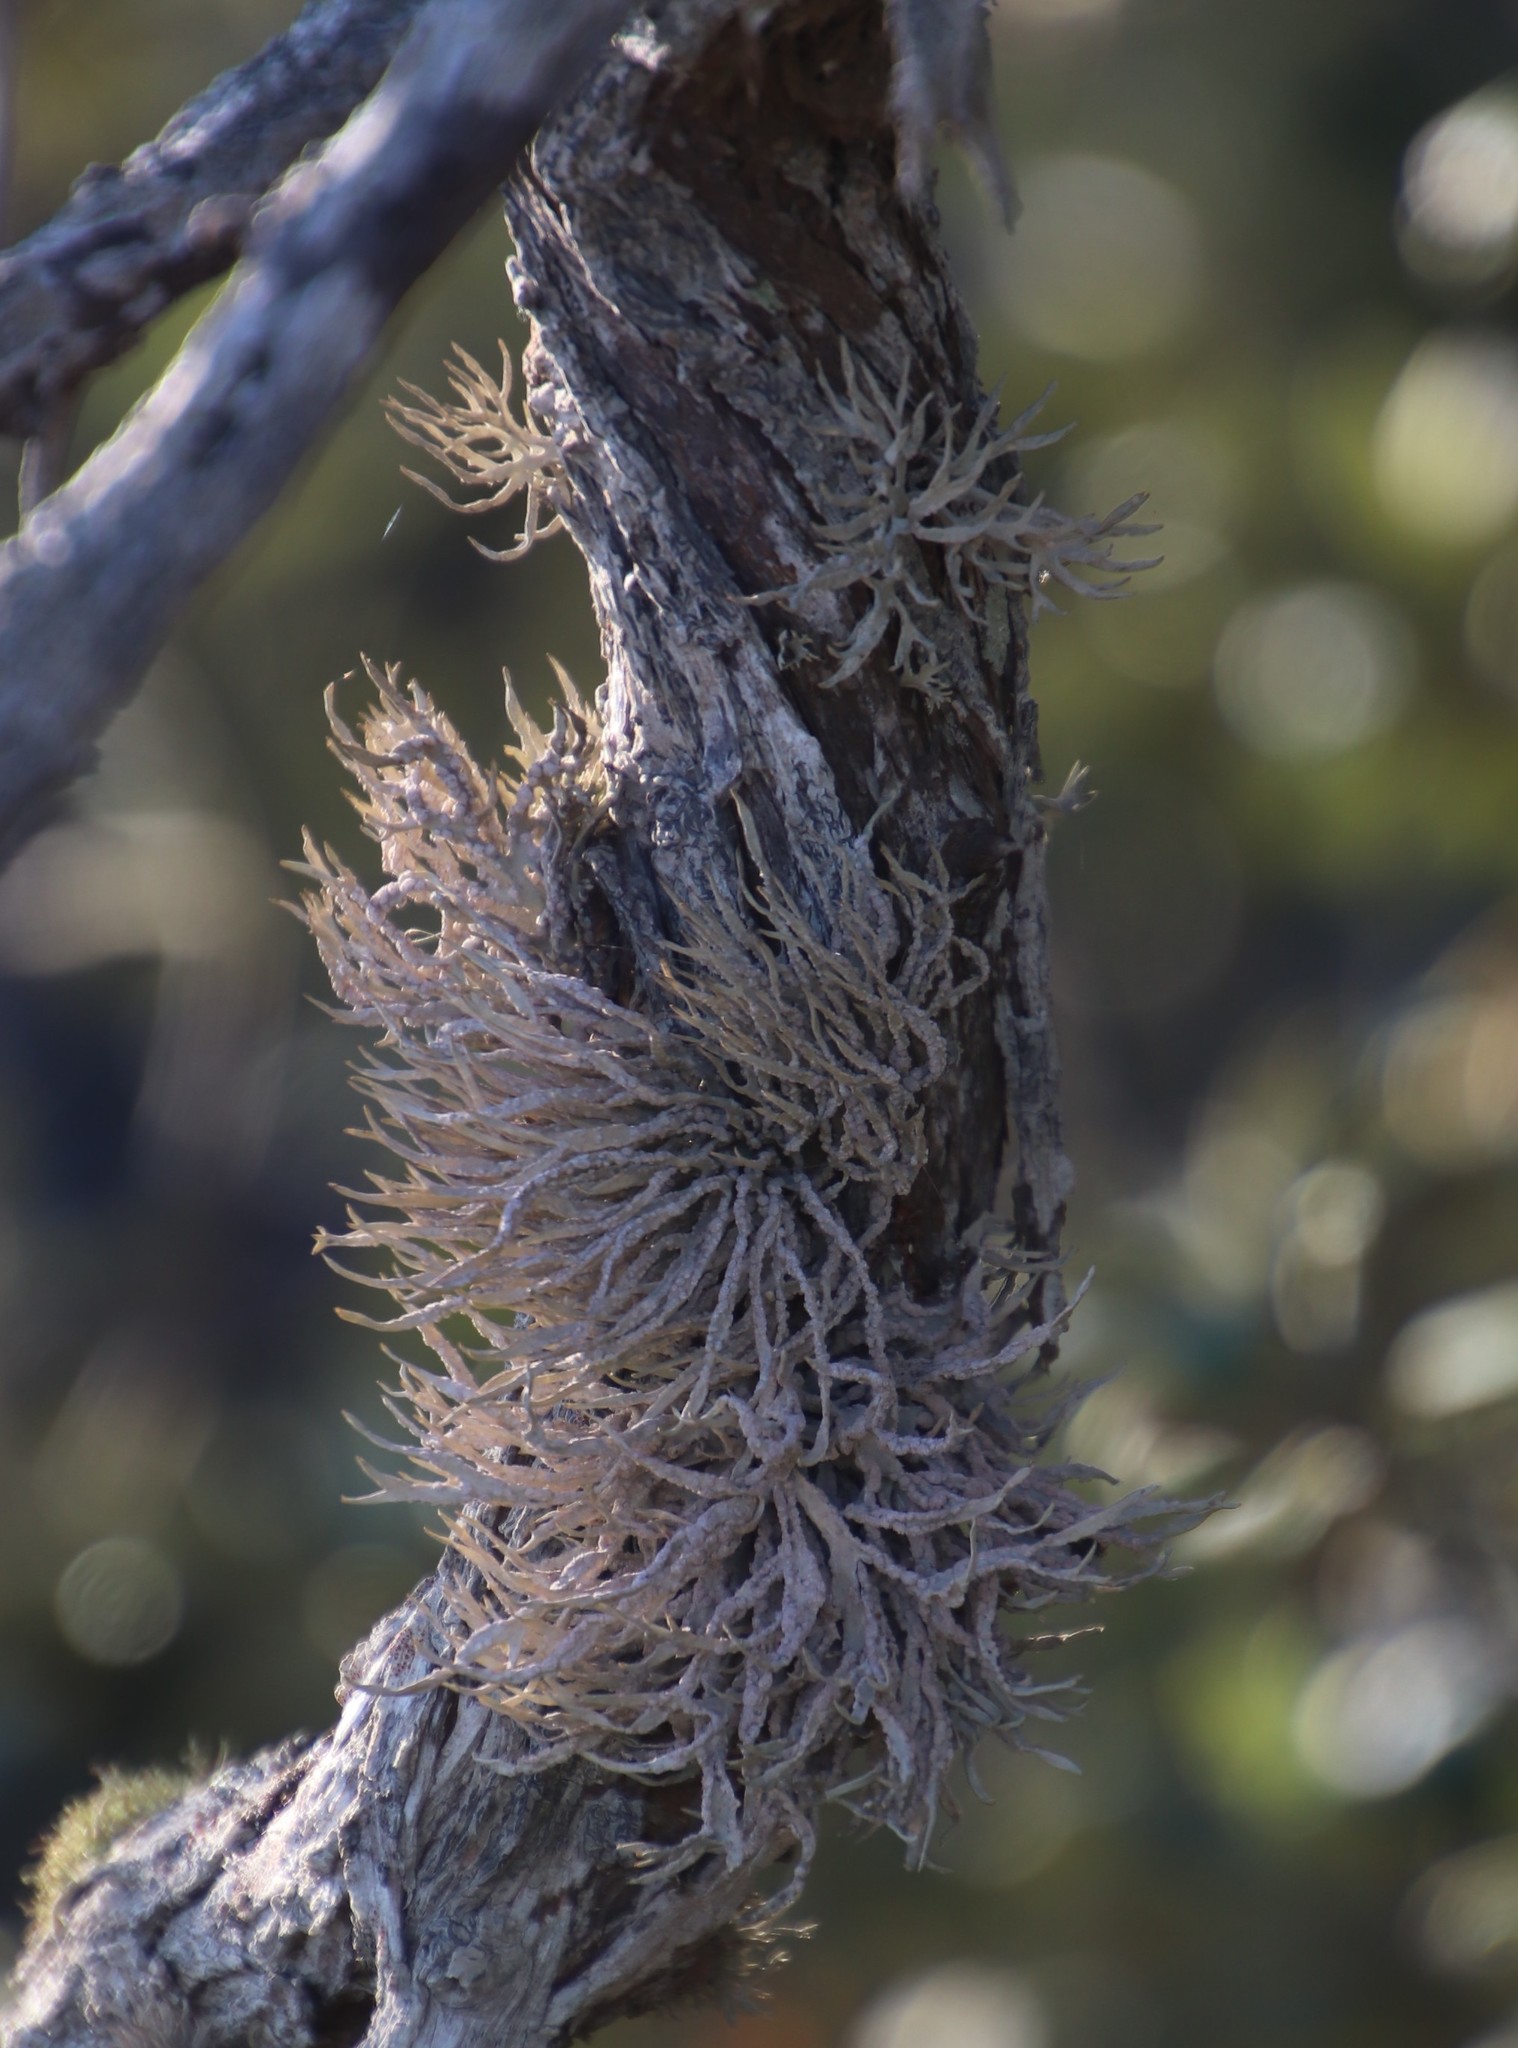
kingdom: Fungi
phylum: Ascomycota
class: Arthoniomycetes
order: Arthoniales
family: Roccellaceae
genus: Roccella
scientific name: Roccella montagnei
